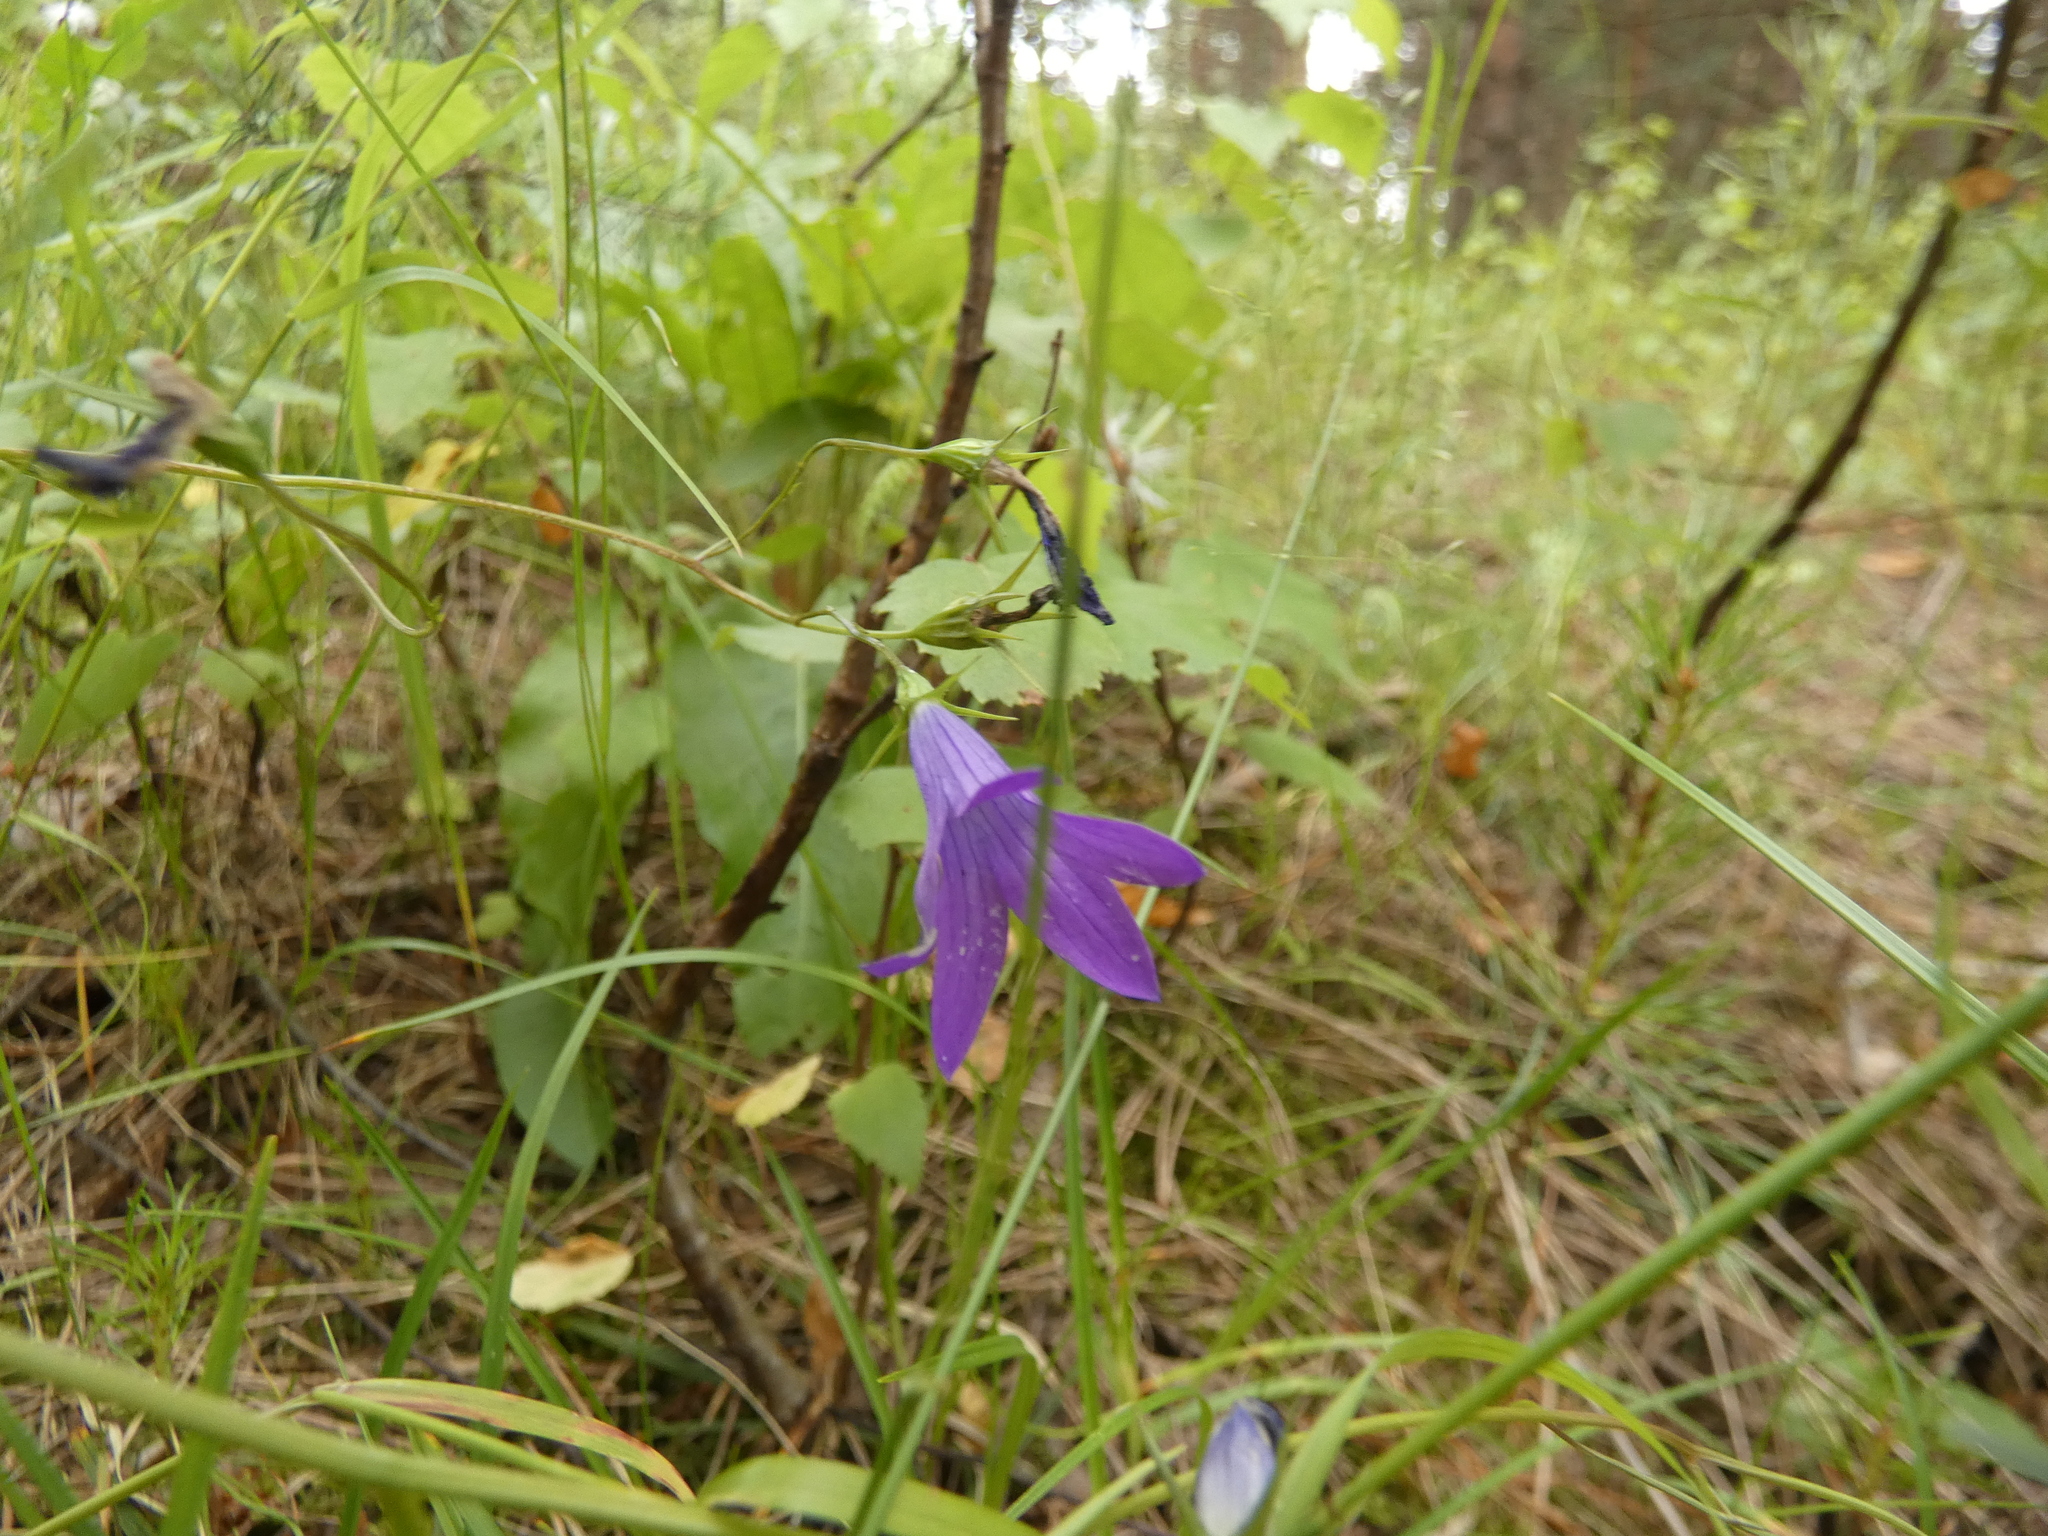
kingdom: Plantae
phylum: Tracheophyta
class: Magnoliopsida
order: Asterales
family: Campanulaceae
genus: Campanula
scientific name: Campanula patula
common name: Spreading bellflower
